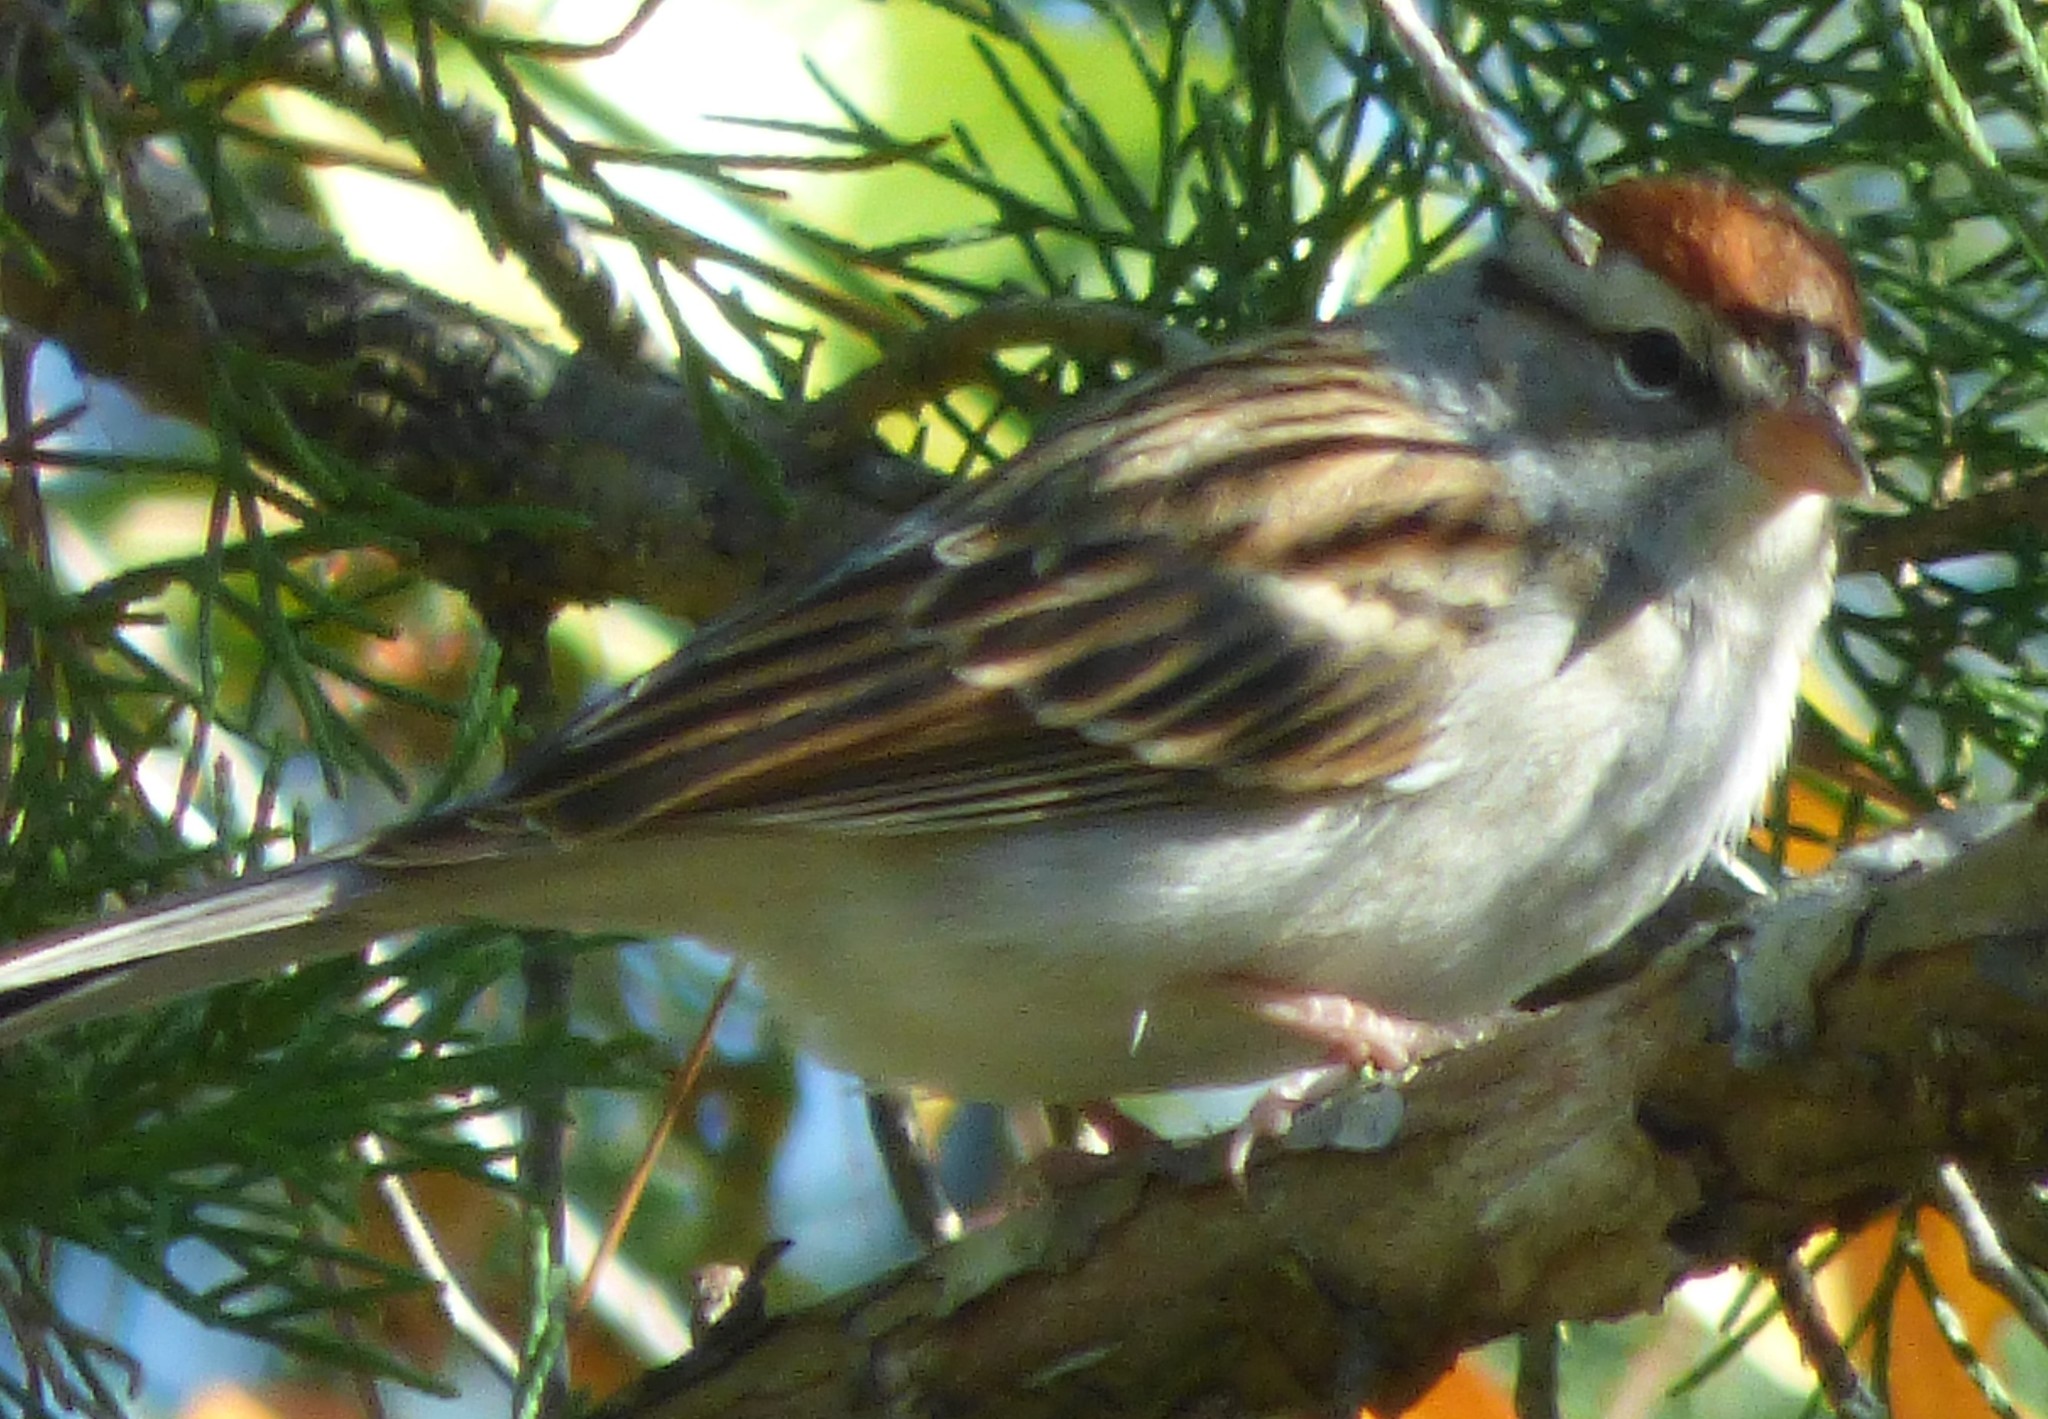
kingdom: Animalia
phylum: Chordata
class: Aves
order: Passeriformes
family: Passerellidae
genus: Spizella
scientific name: Spizella passerina
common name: Chipping sparrow
